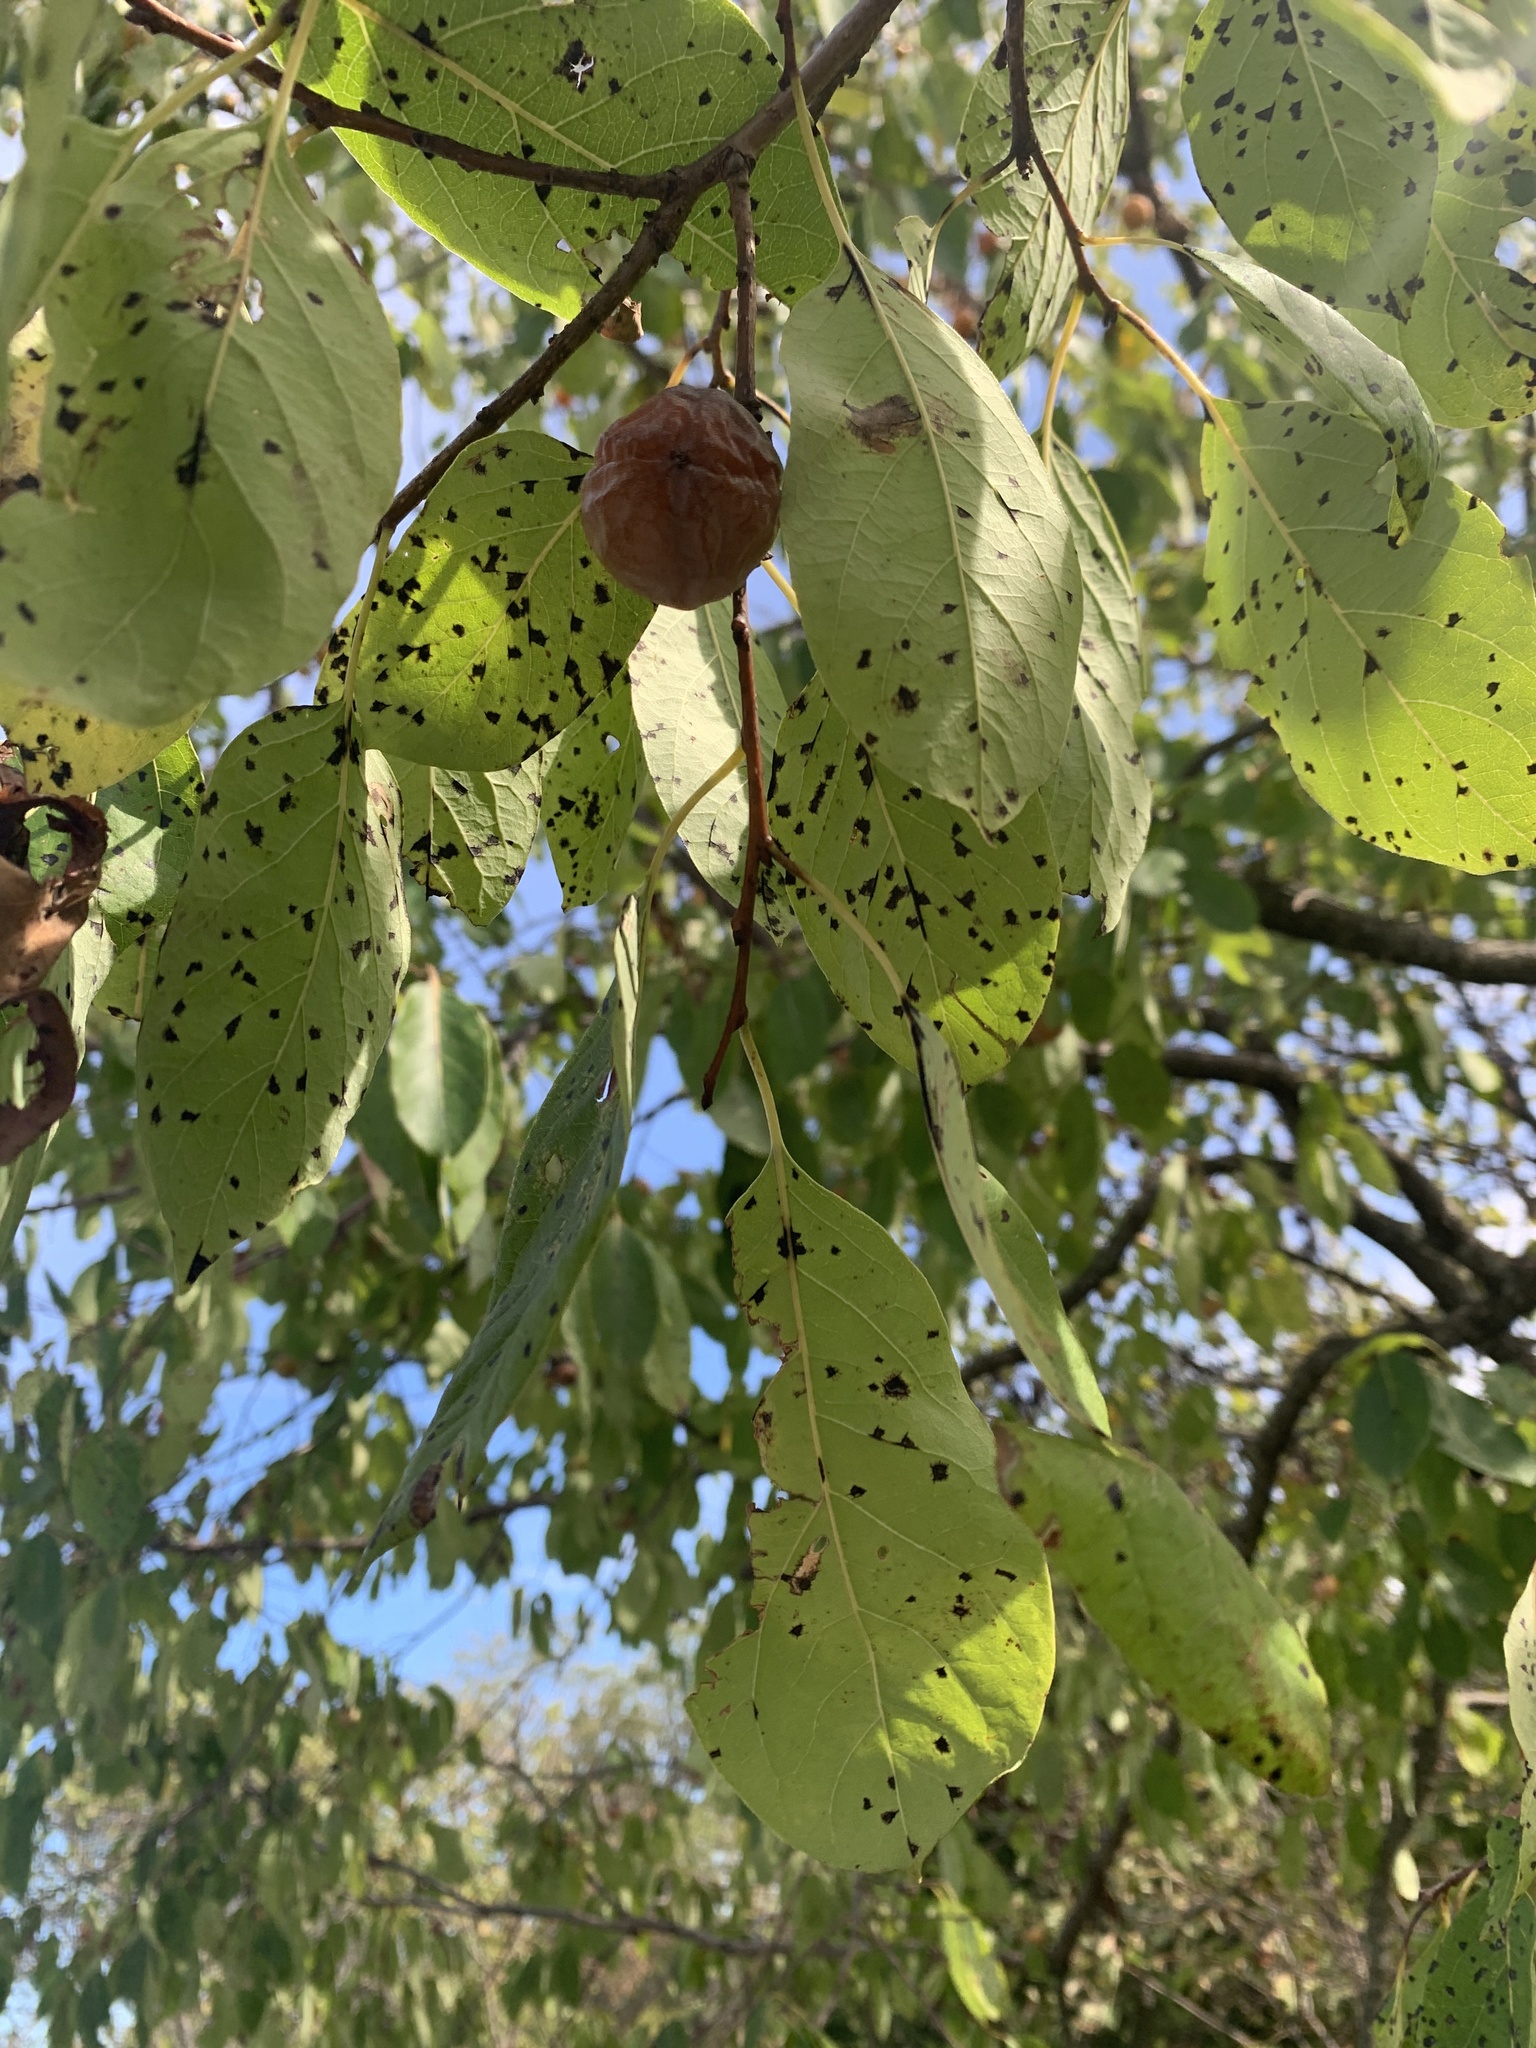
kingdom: Plantae
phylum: Tracheophyta
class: Magnoliopsida
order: Ericales
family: Ebenaceae
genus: Diospyros
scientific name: Diospyros virginiana
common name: Persimmon
